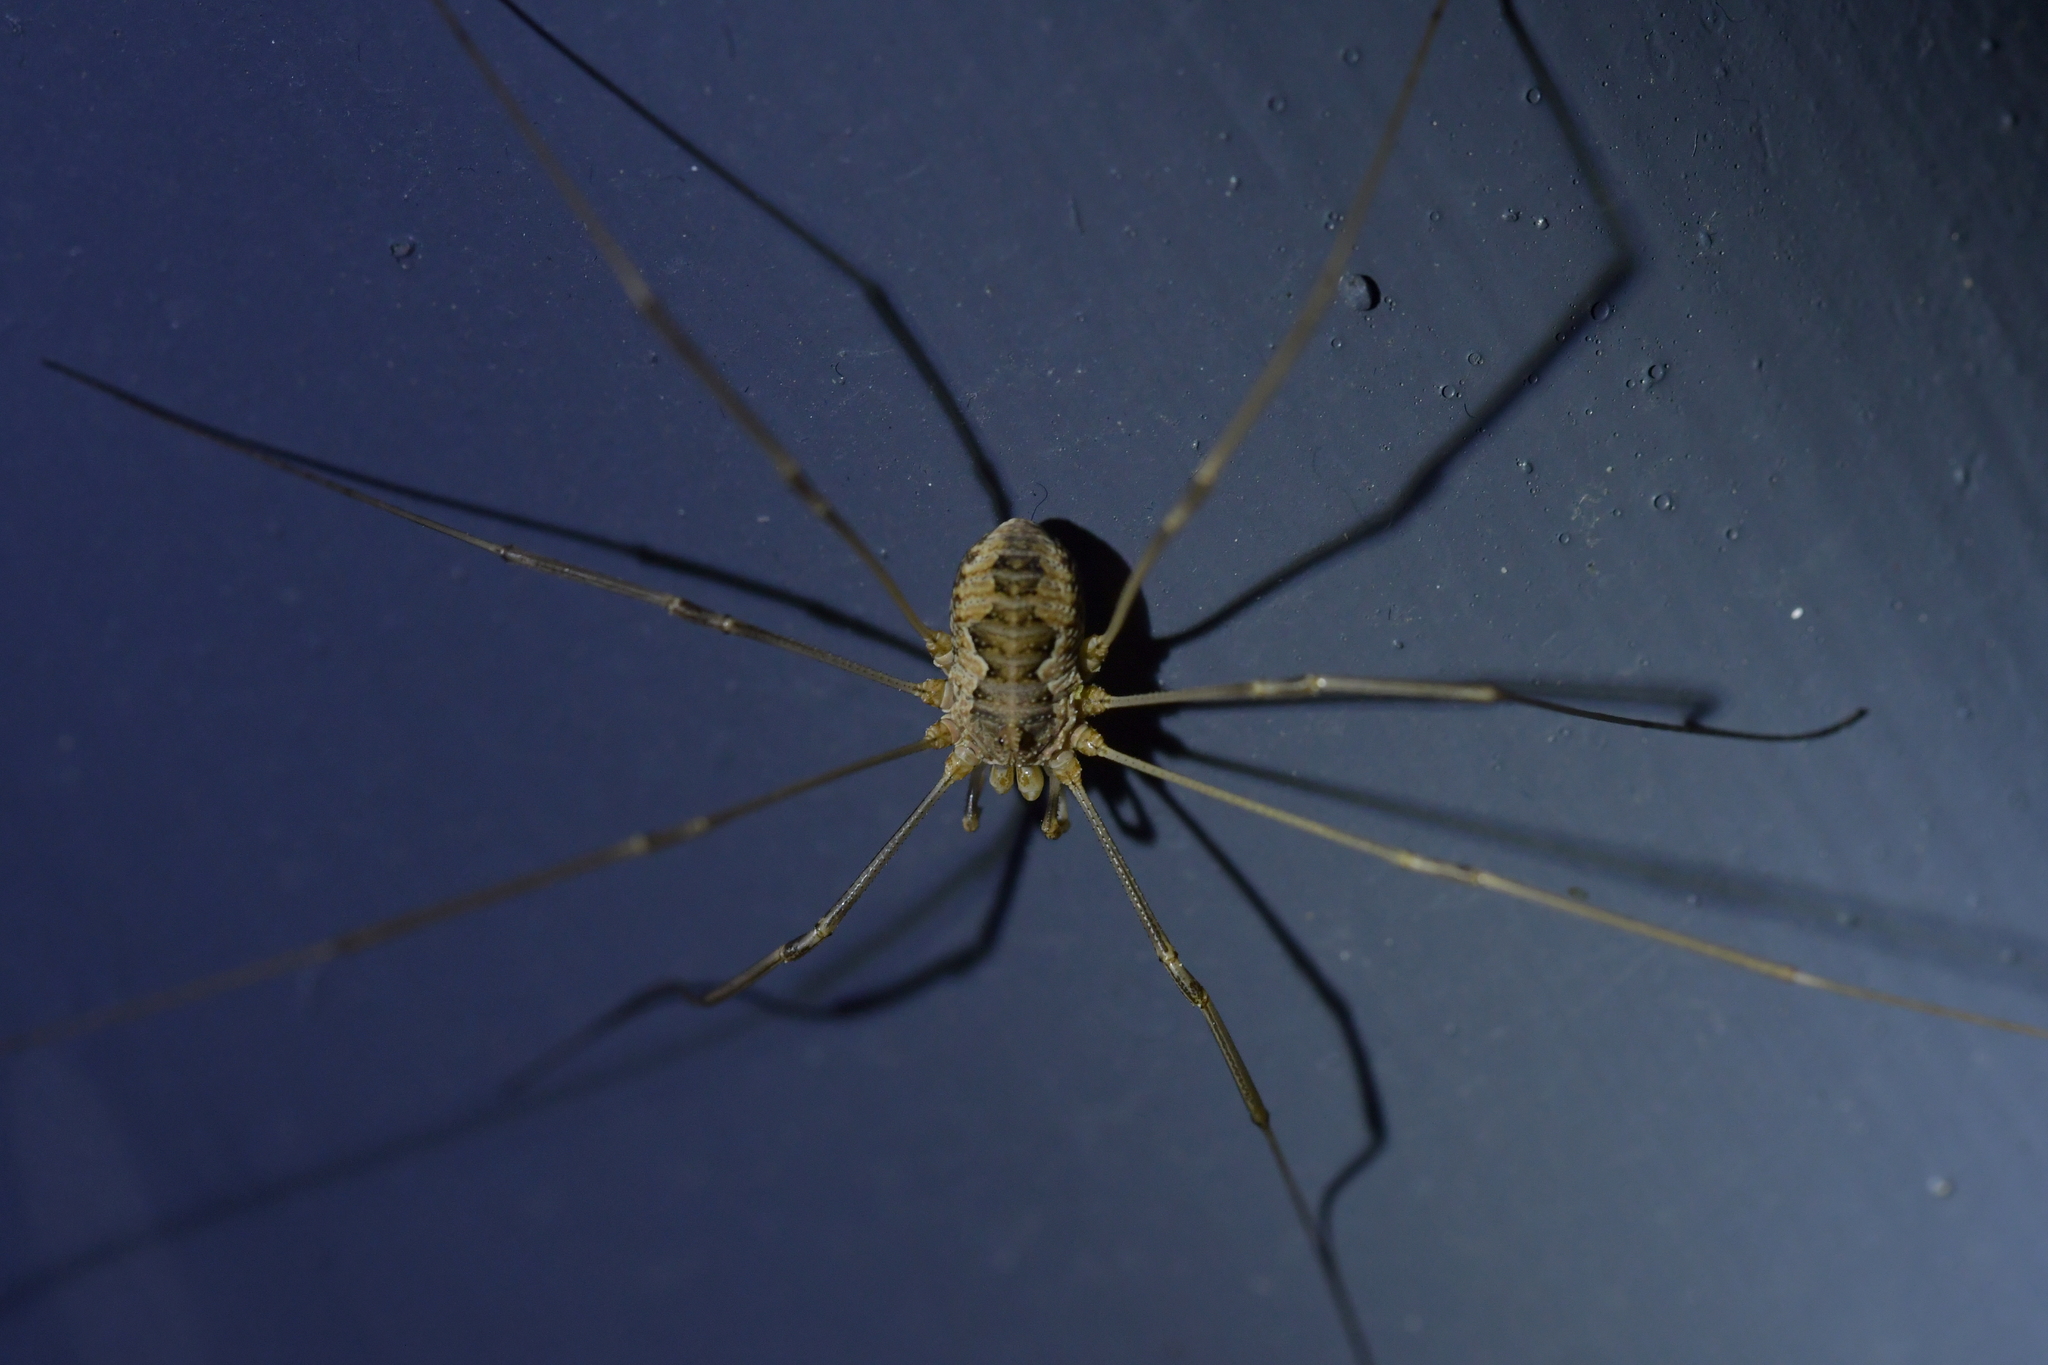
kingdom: Animalia
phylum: Arthropoda
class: Arachnida
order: Opiliones
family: Phalangiidae
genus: Phalangium
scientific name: Phalangium opilio
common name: Daddy longleg
